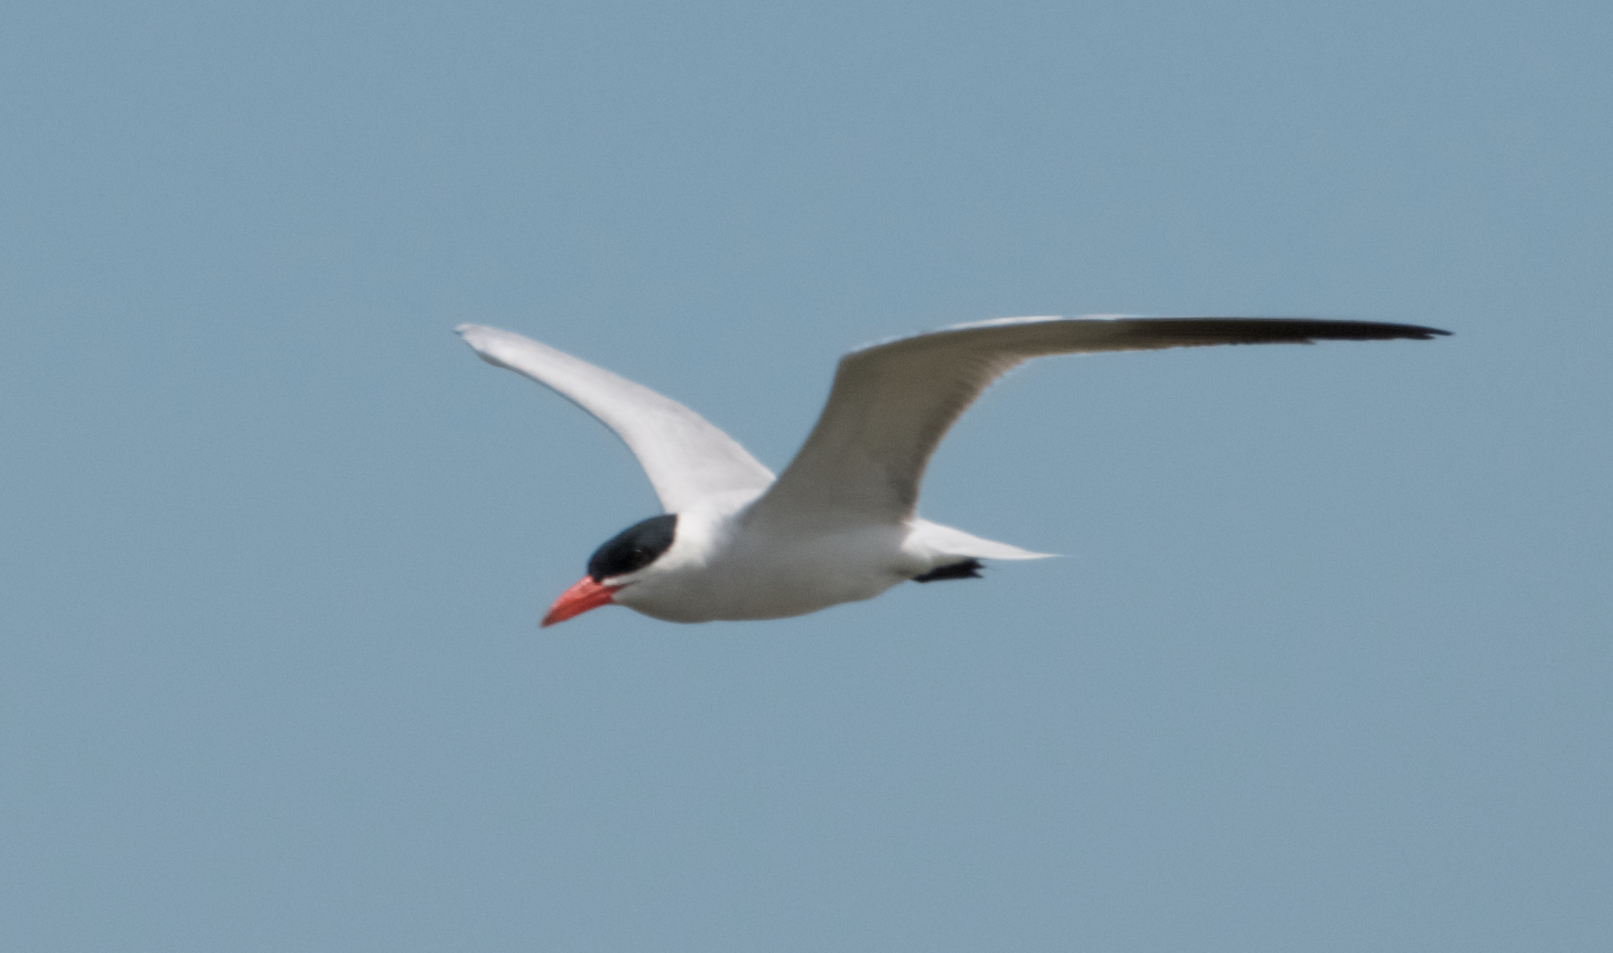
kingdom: Animalia
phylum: Chordata
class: Aves
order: Charadriiformes
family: Laridae
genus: Hydroprogne
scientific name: Hydroprogne caspia
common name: Caspian tern
